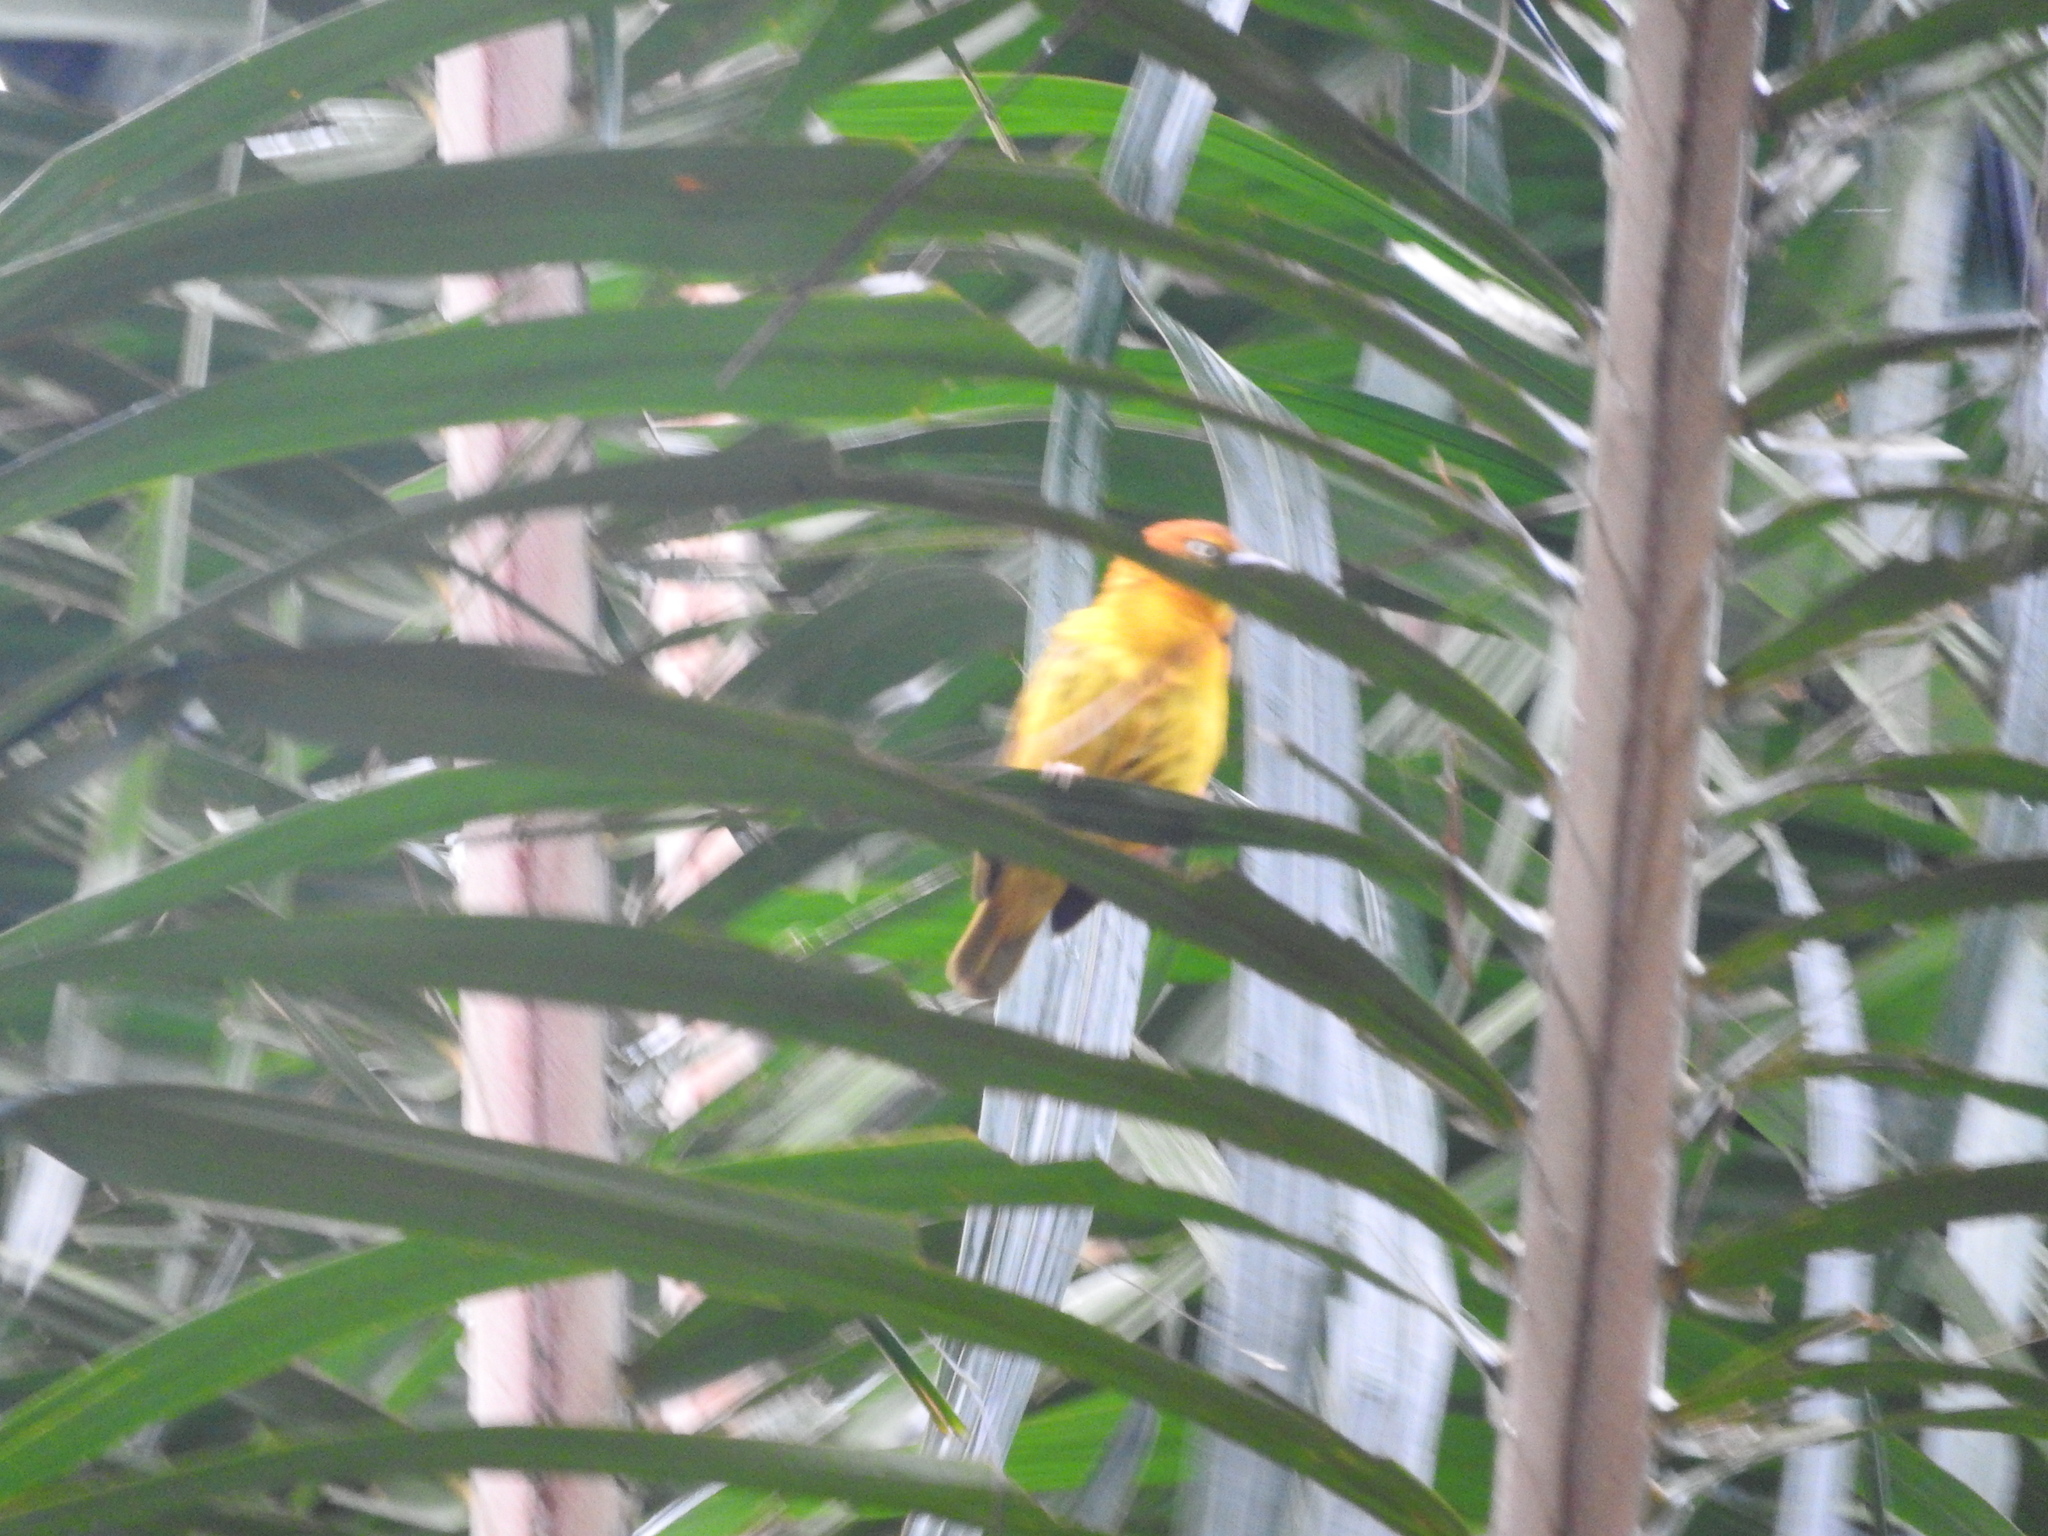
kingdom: Animalia
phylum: Chordata
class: Aves
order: Passeriformes
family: Ploceidae
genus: Ploceus
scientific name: Ploceus princeps
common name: Principe weaver
